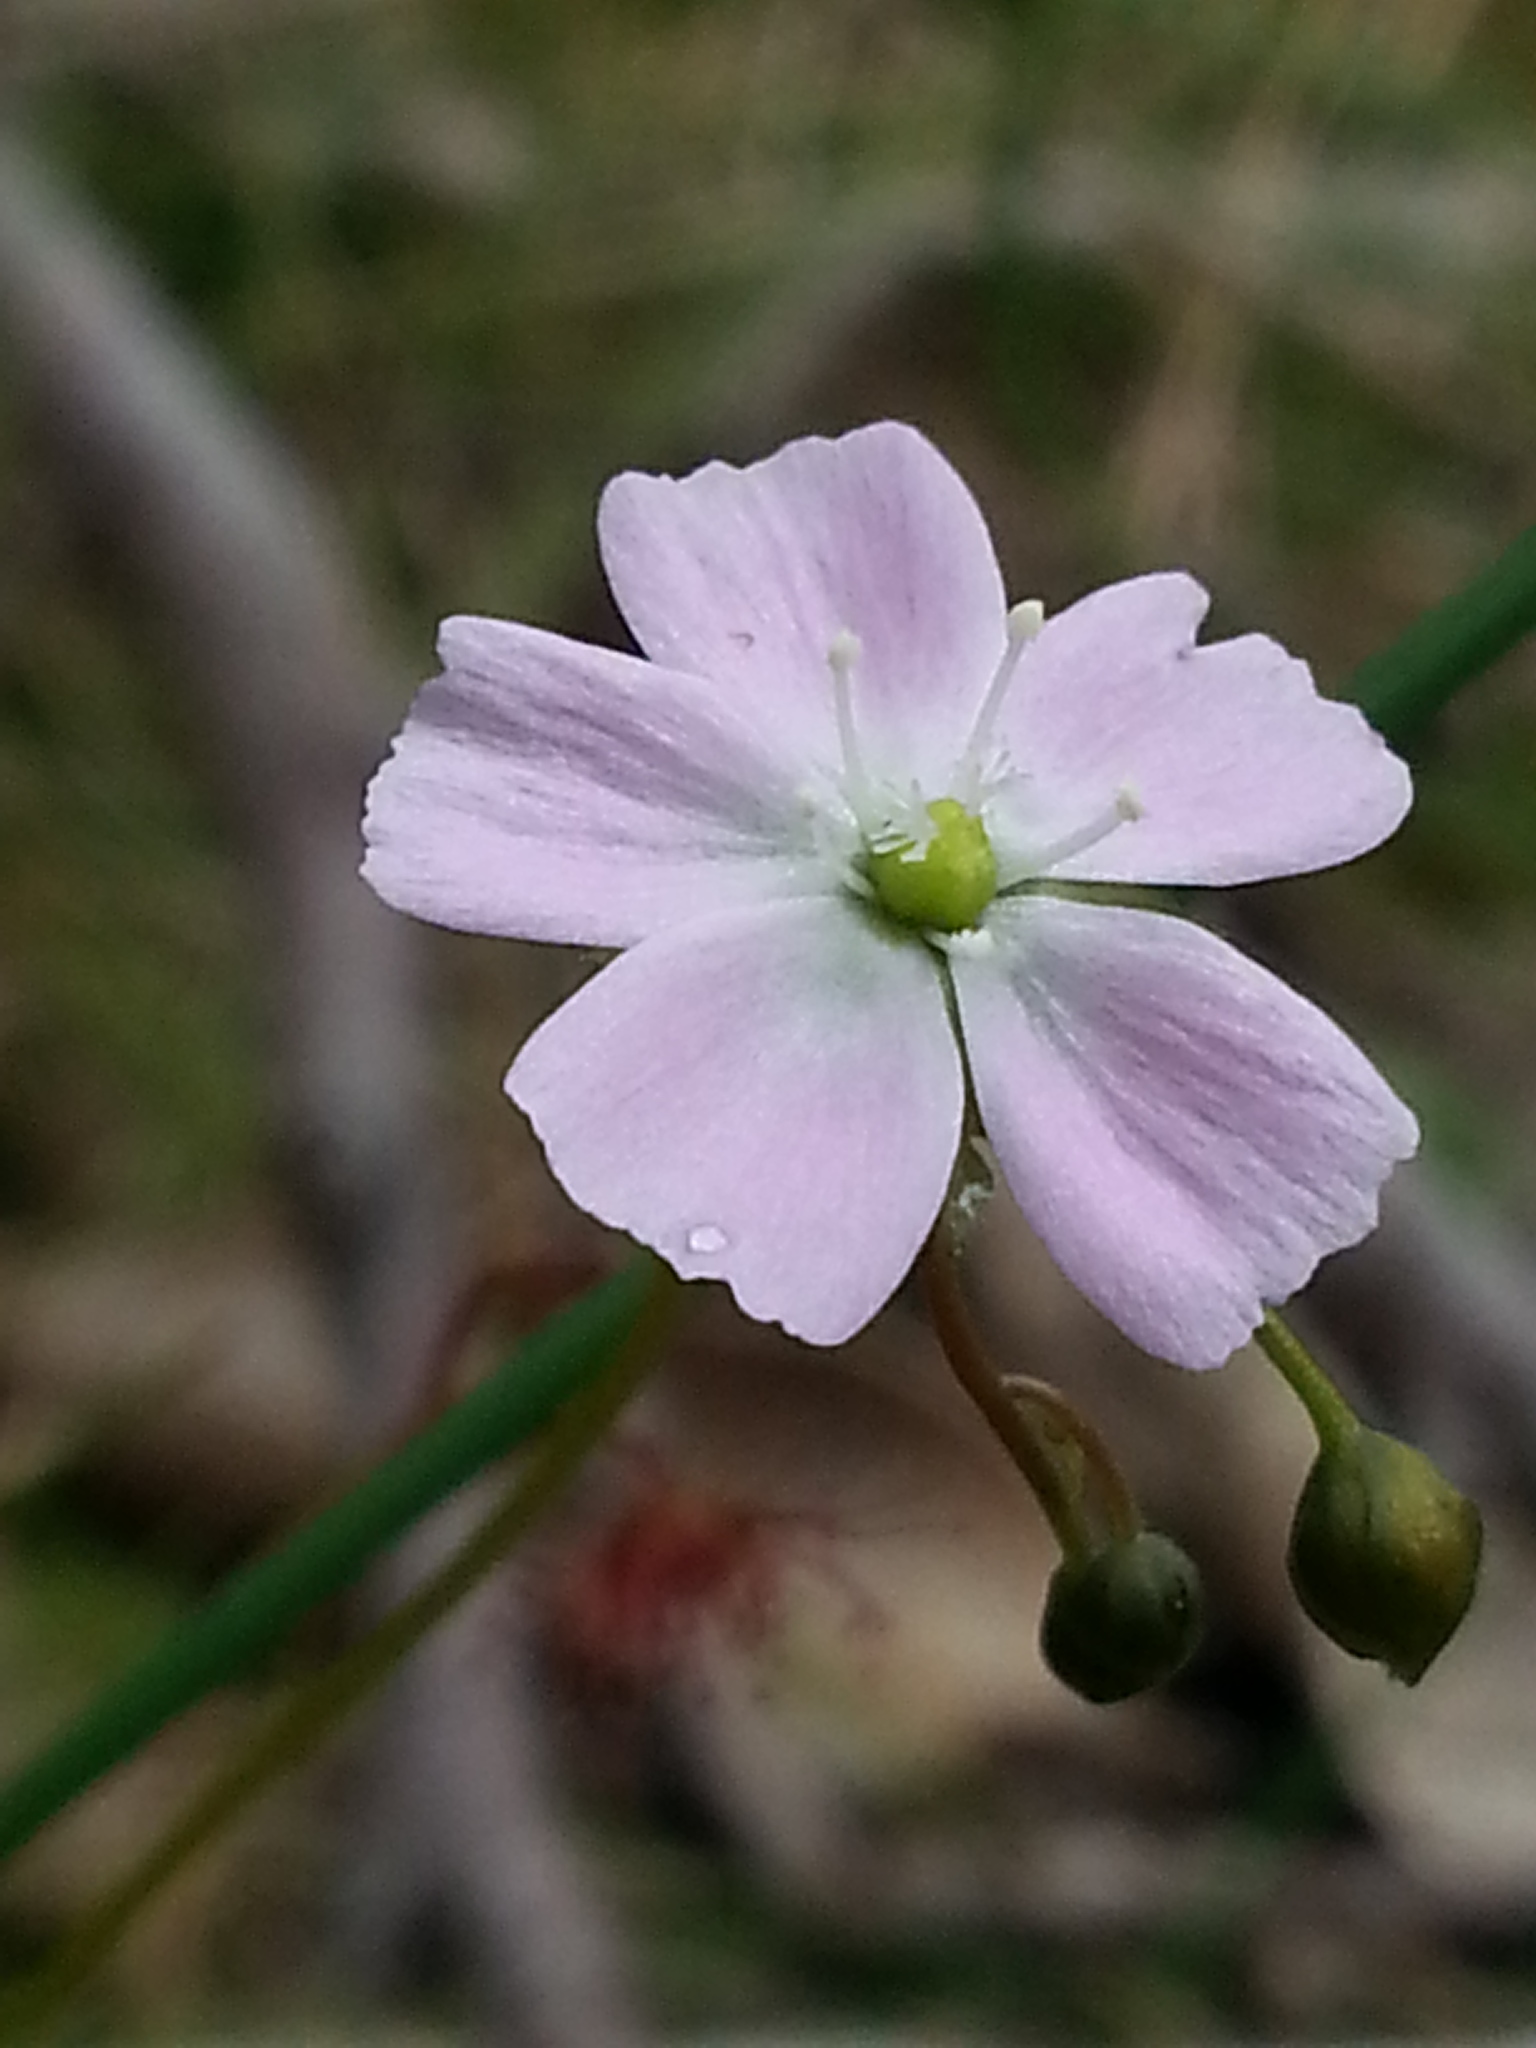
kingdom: Plantae
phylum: Tracheophyta
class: Magnoliopsida
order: Caryophyllales
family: Droseraceae
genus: Drosera
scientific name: Drosera peltata
